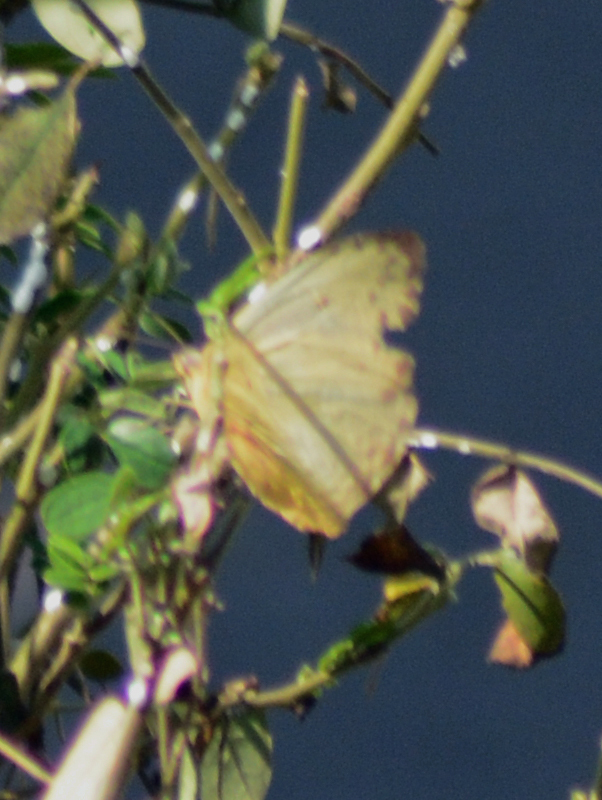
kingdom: Animalia
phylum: Arthropoda
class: Insecta
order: Lepidoptera
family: Pieridae
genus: Phoebis
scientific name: Phoebis philea
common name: Orange-barred giant sulphur
